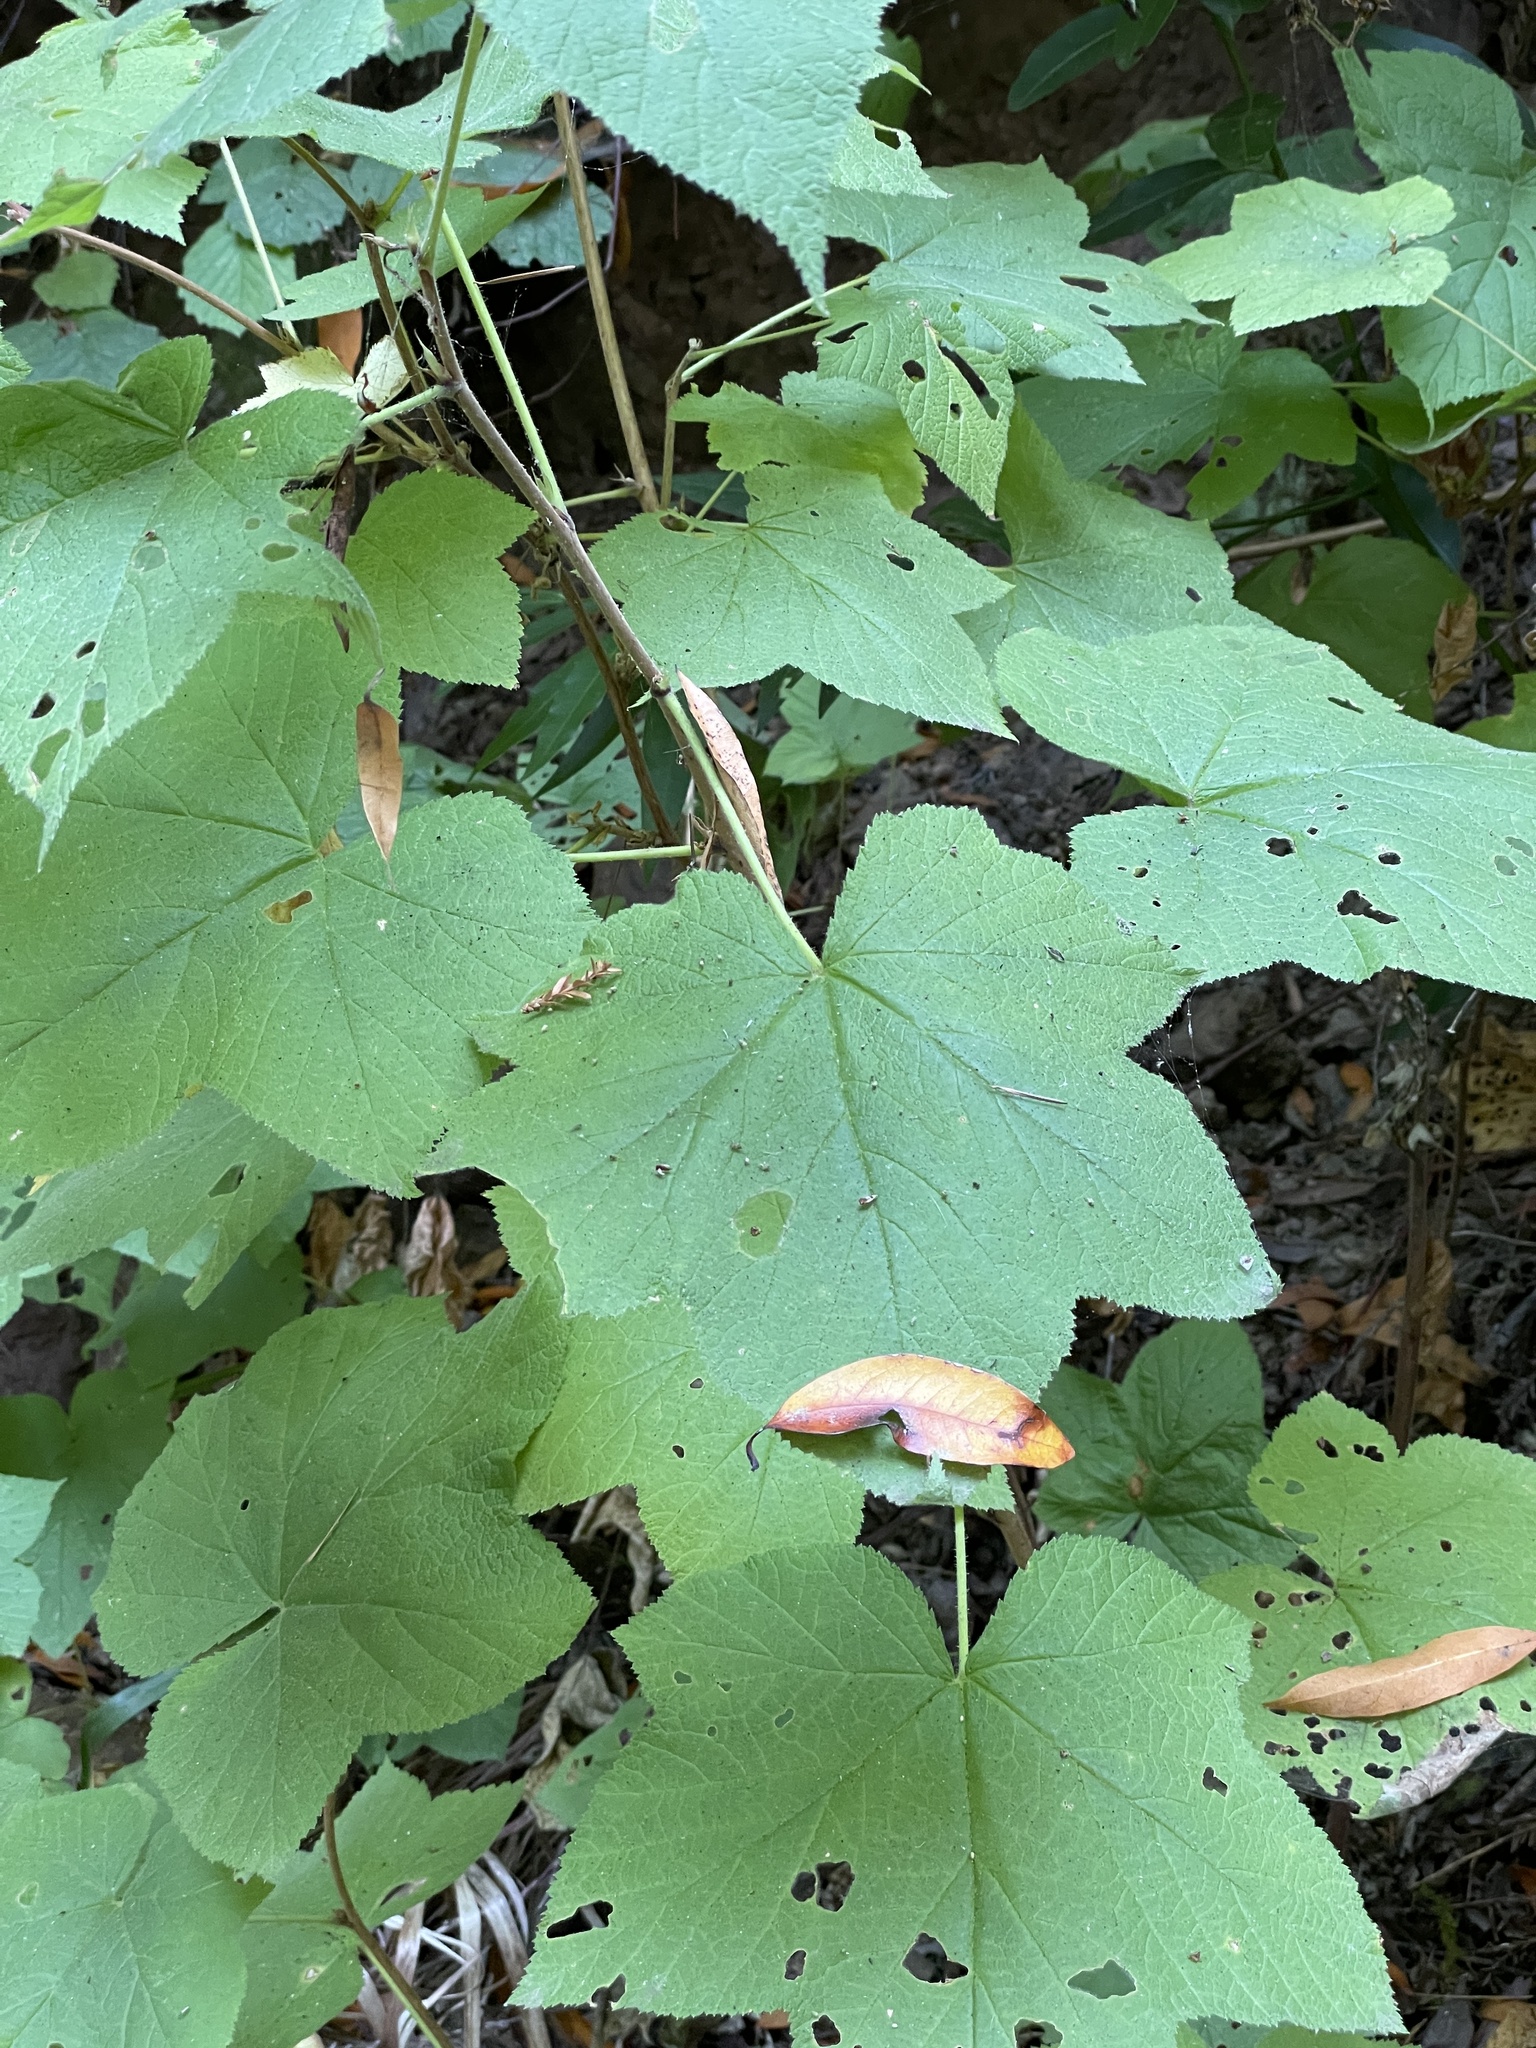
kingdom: Plantae
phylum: Tracheophyta
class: Magnoliopsida
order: Rosales
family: Rosaceae
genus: Rubus
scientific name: Rubus parviflorus
